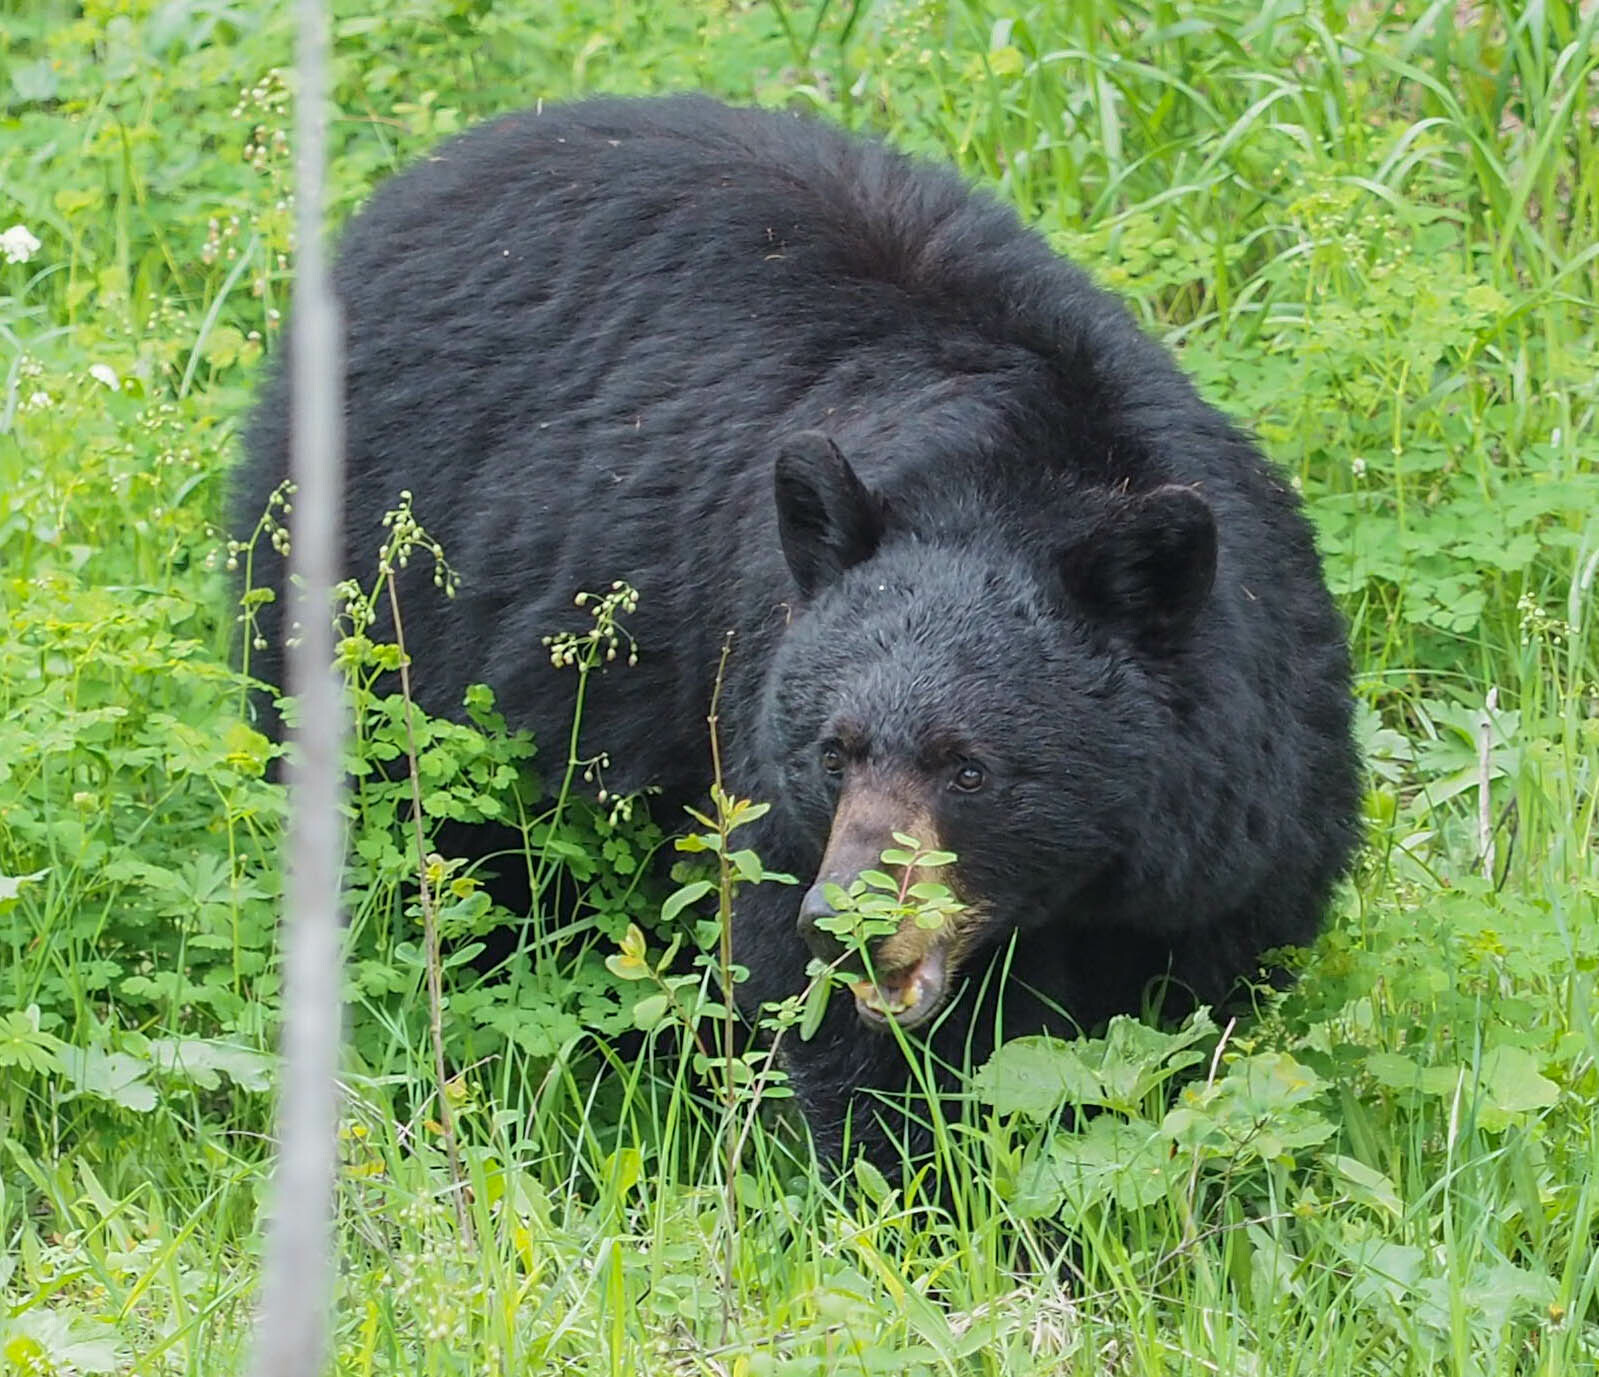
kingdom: Animalia
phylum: Chordata
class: Mammalia
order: Carnivora
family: Ursidae
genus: Ursus
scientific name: Ursus americanus
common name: American black bear
